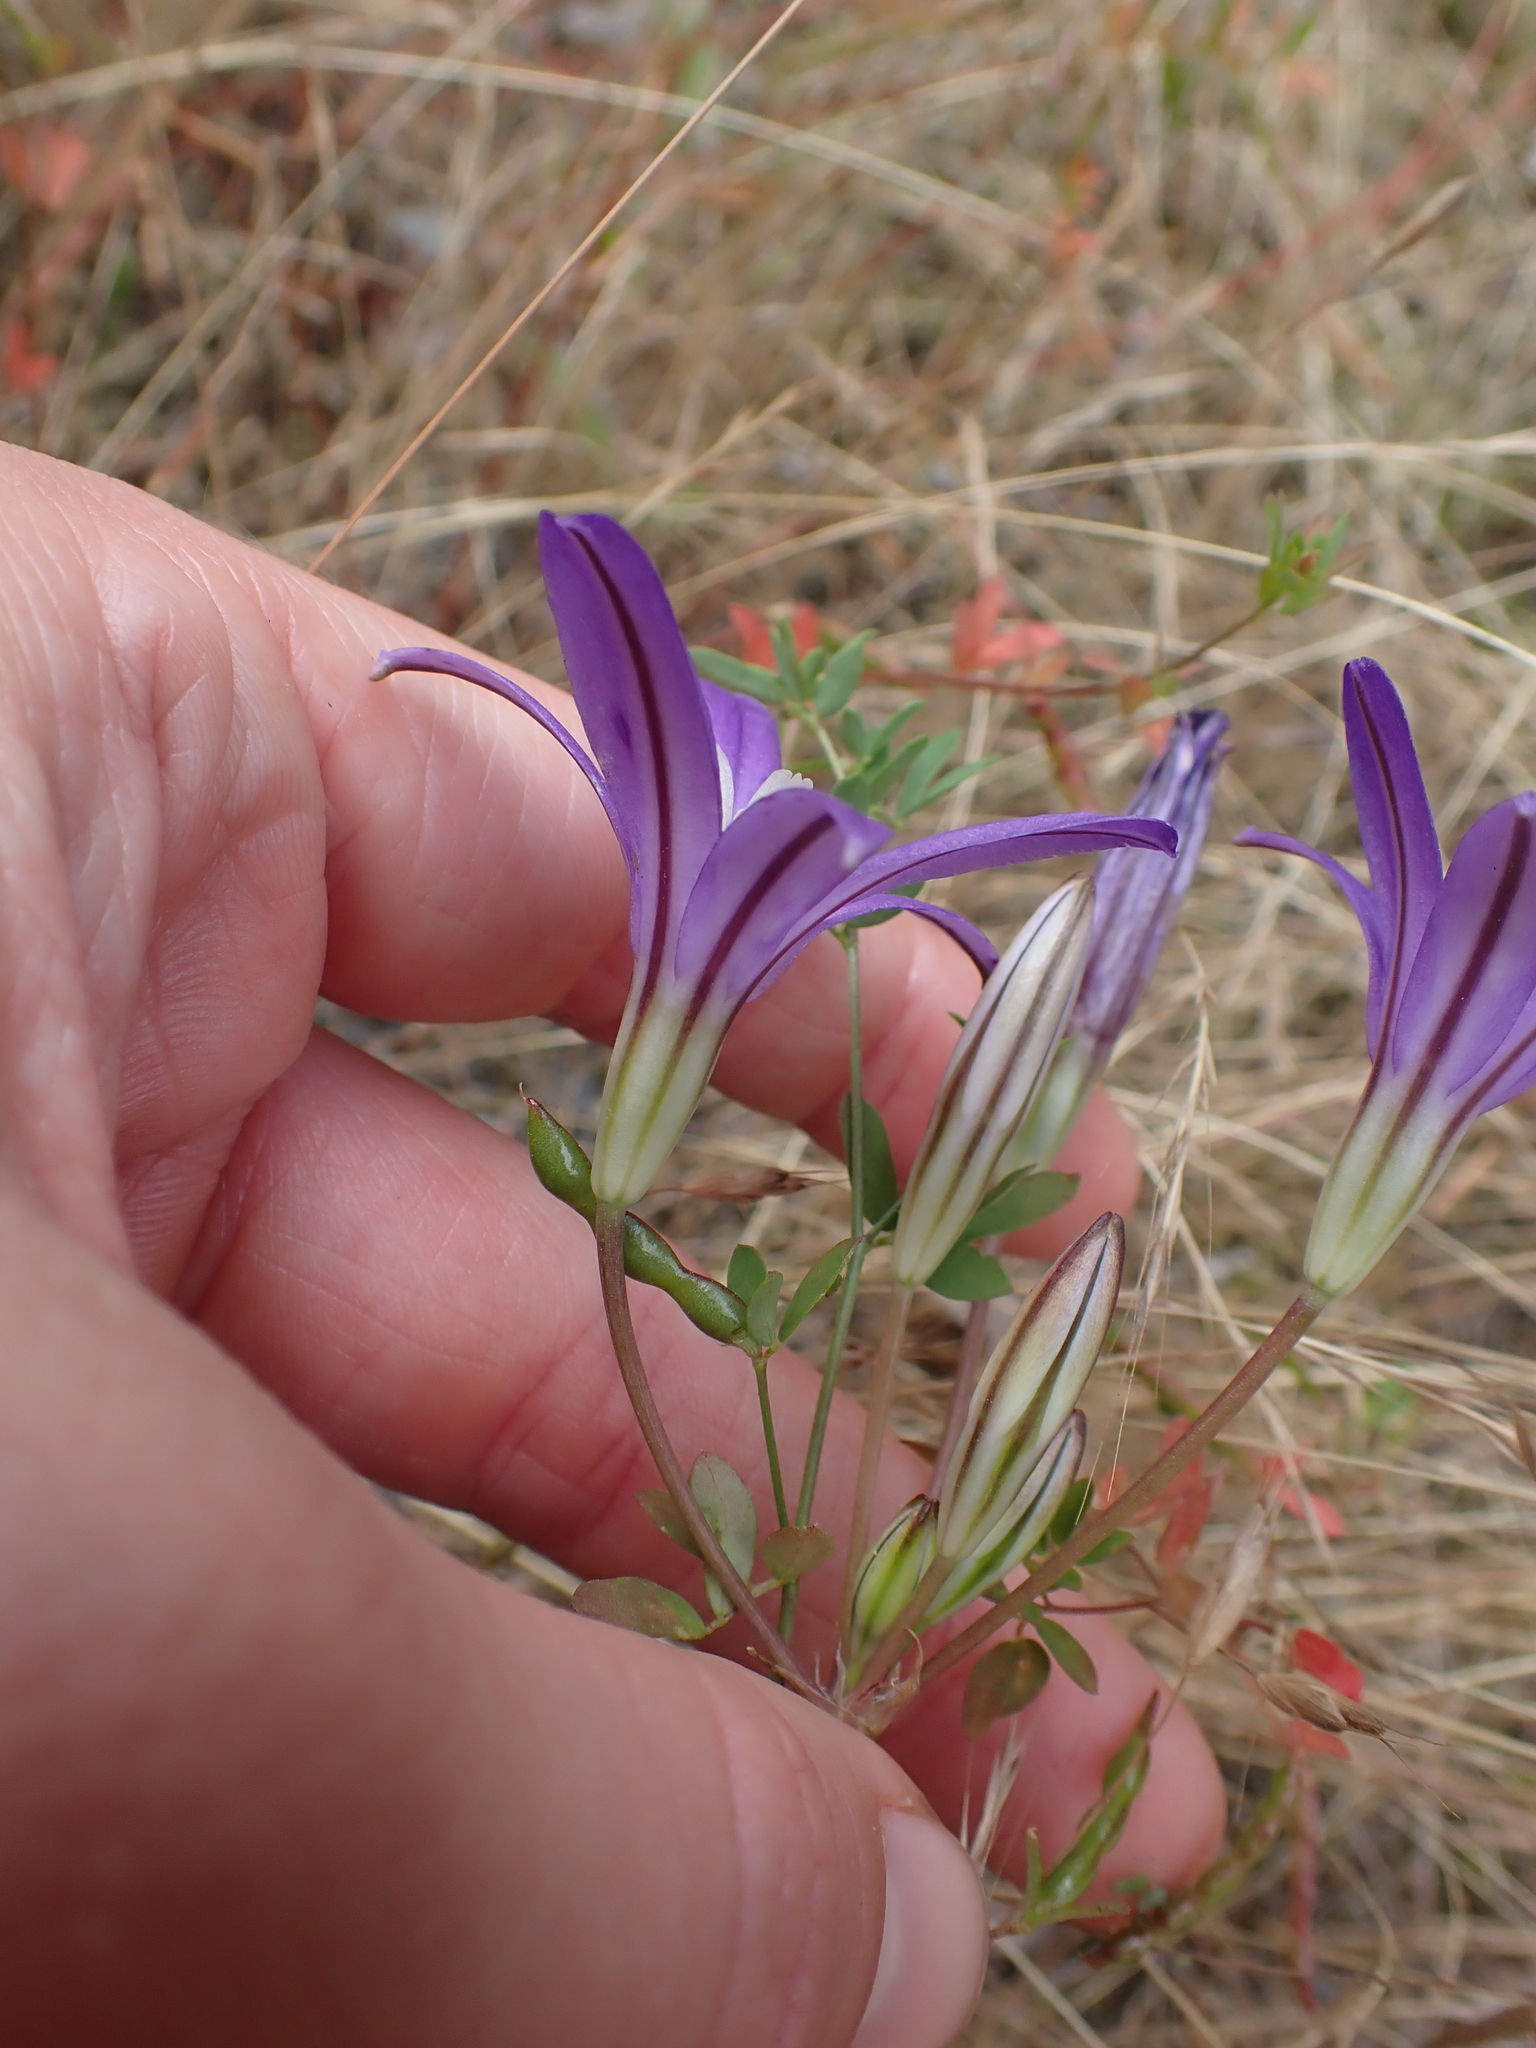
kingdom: Plantae
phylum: Tracheophyta
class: Liliopsida
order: Asparagales
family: Asparagaceae
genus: Brodiaea
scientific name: Brodiaea coronaria
